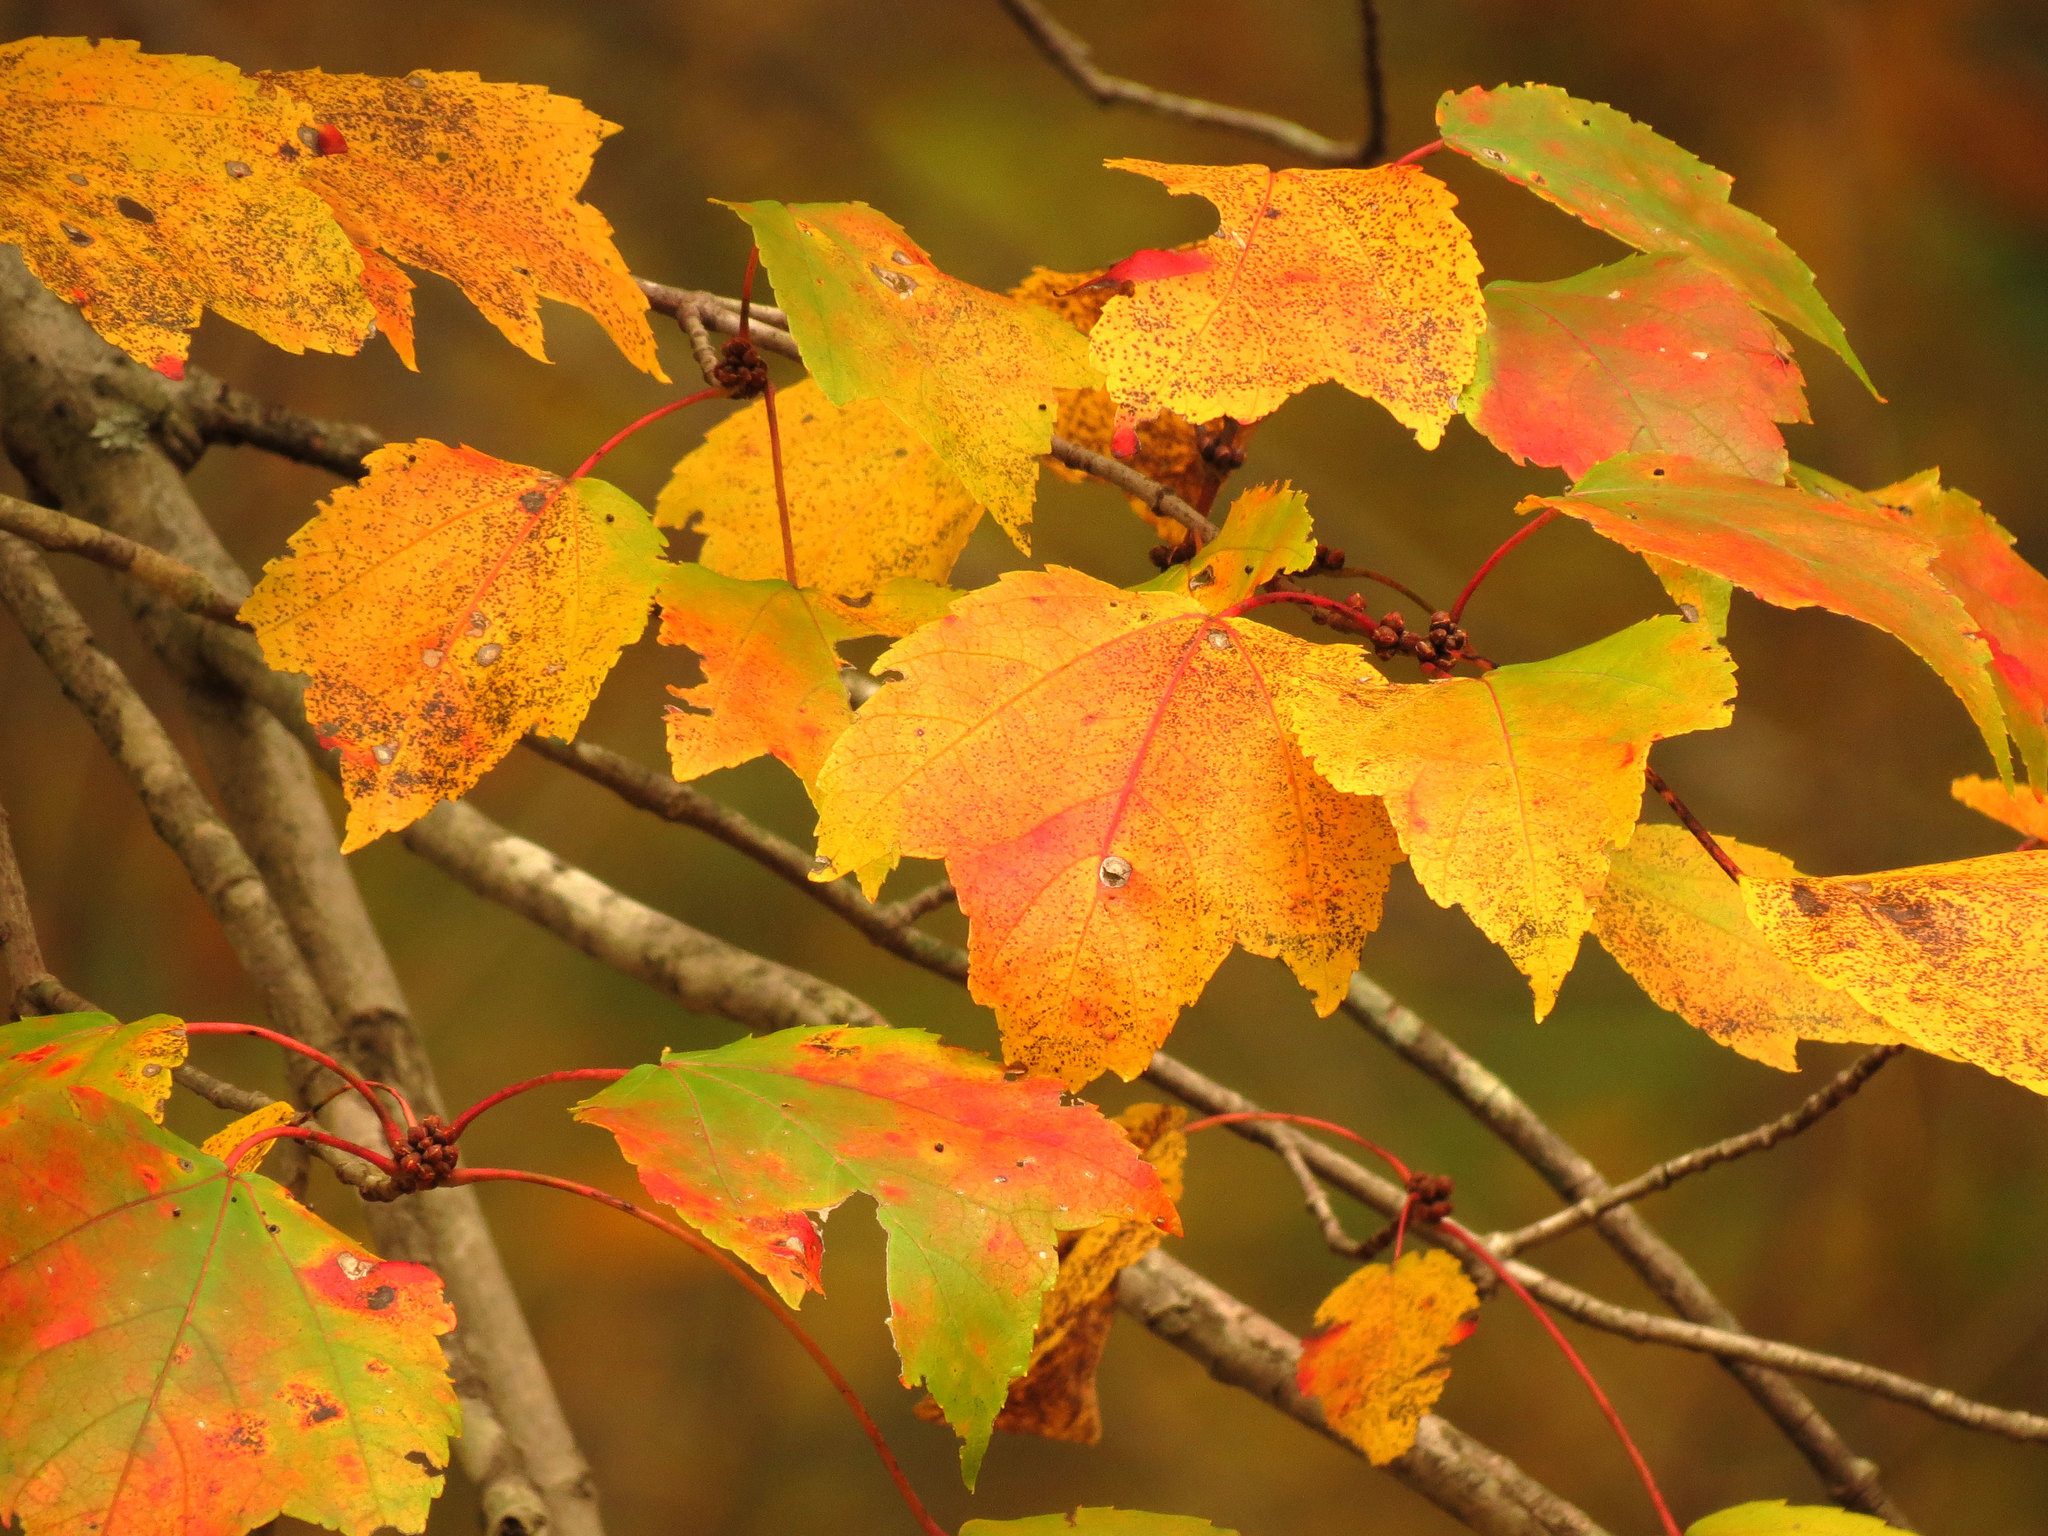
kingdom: Plantae
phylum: Tracheophyta
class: Magnoliopsida
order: Sapindales
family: Sapindaceae
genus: Acer
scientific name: Acer rubrum
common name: Red maple
